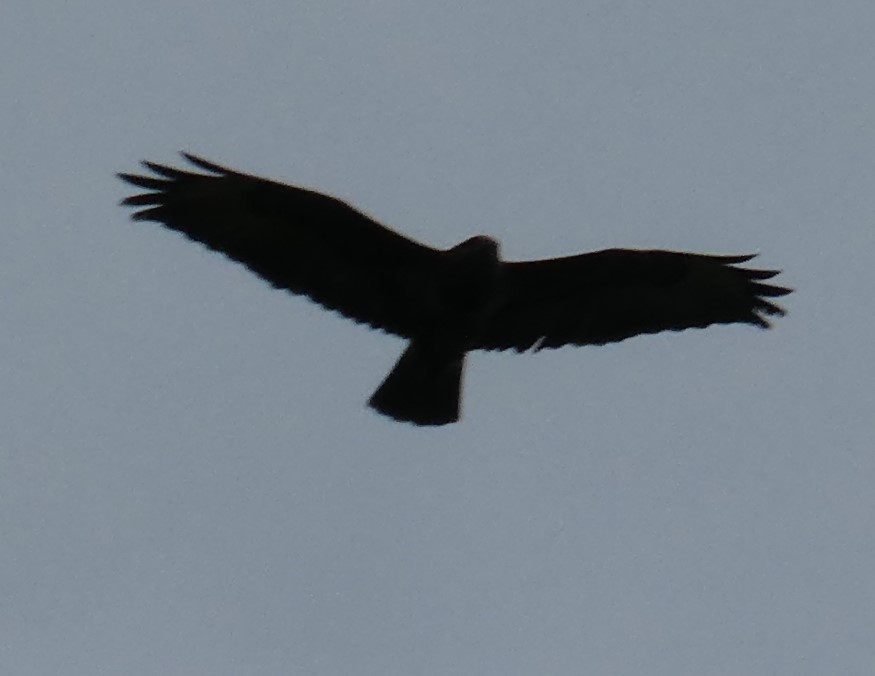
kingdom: Animalia
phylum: Chordata
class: Aves
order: Accipitriformes
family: Accipitridae
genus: Buteo
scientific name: Buteo buteo
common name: Common buzzard
